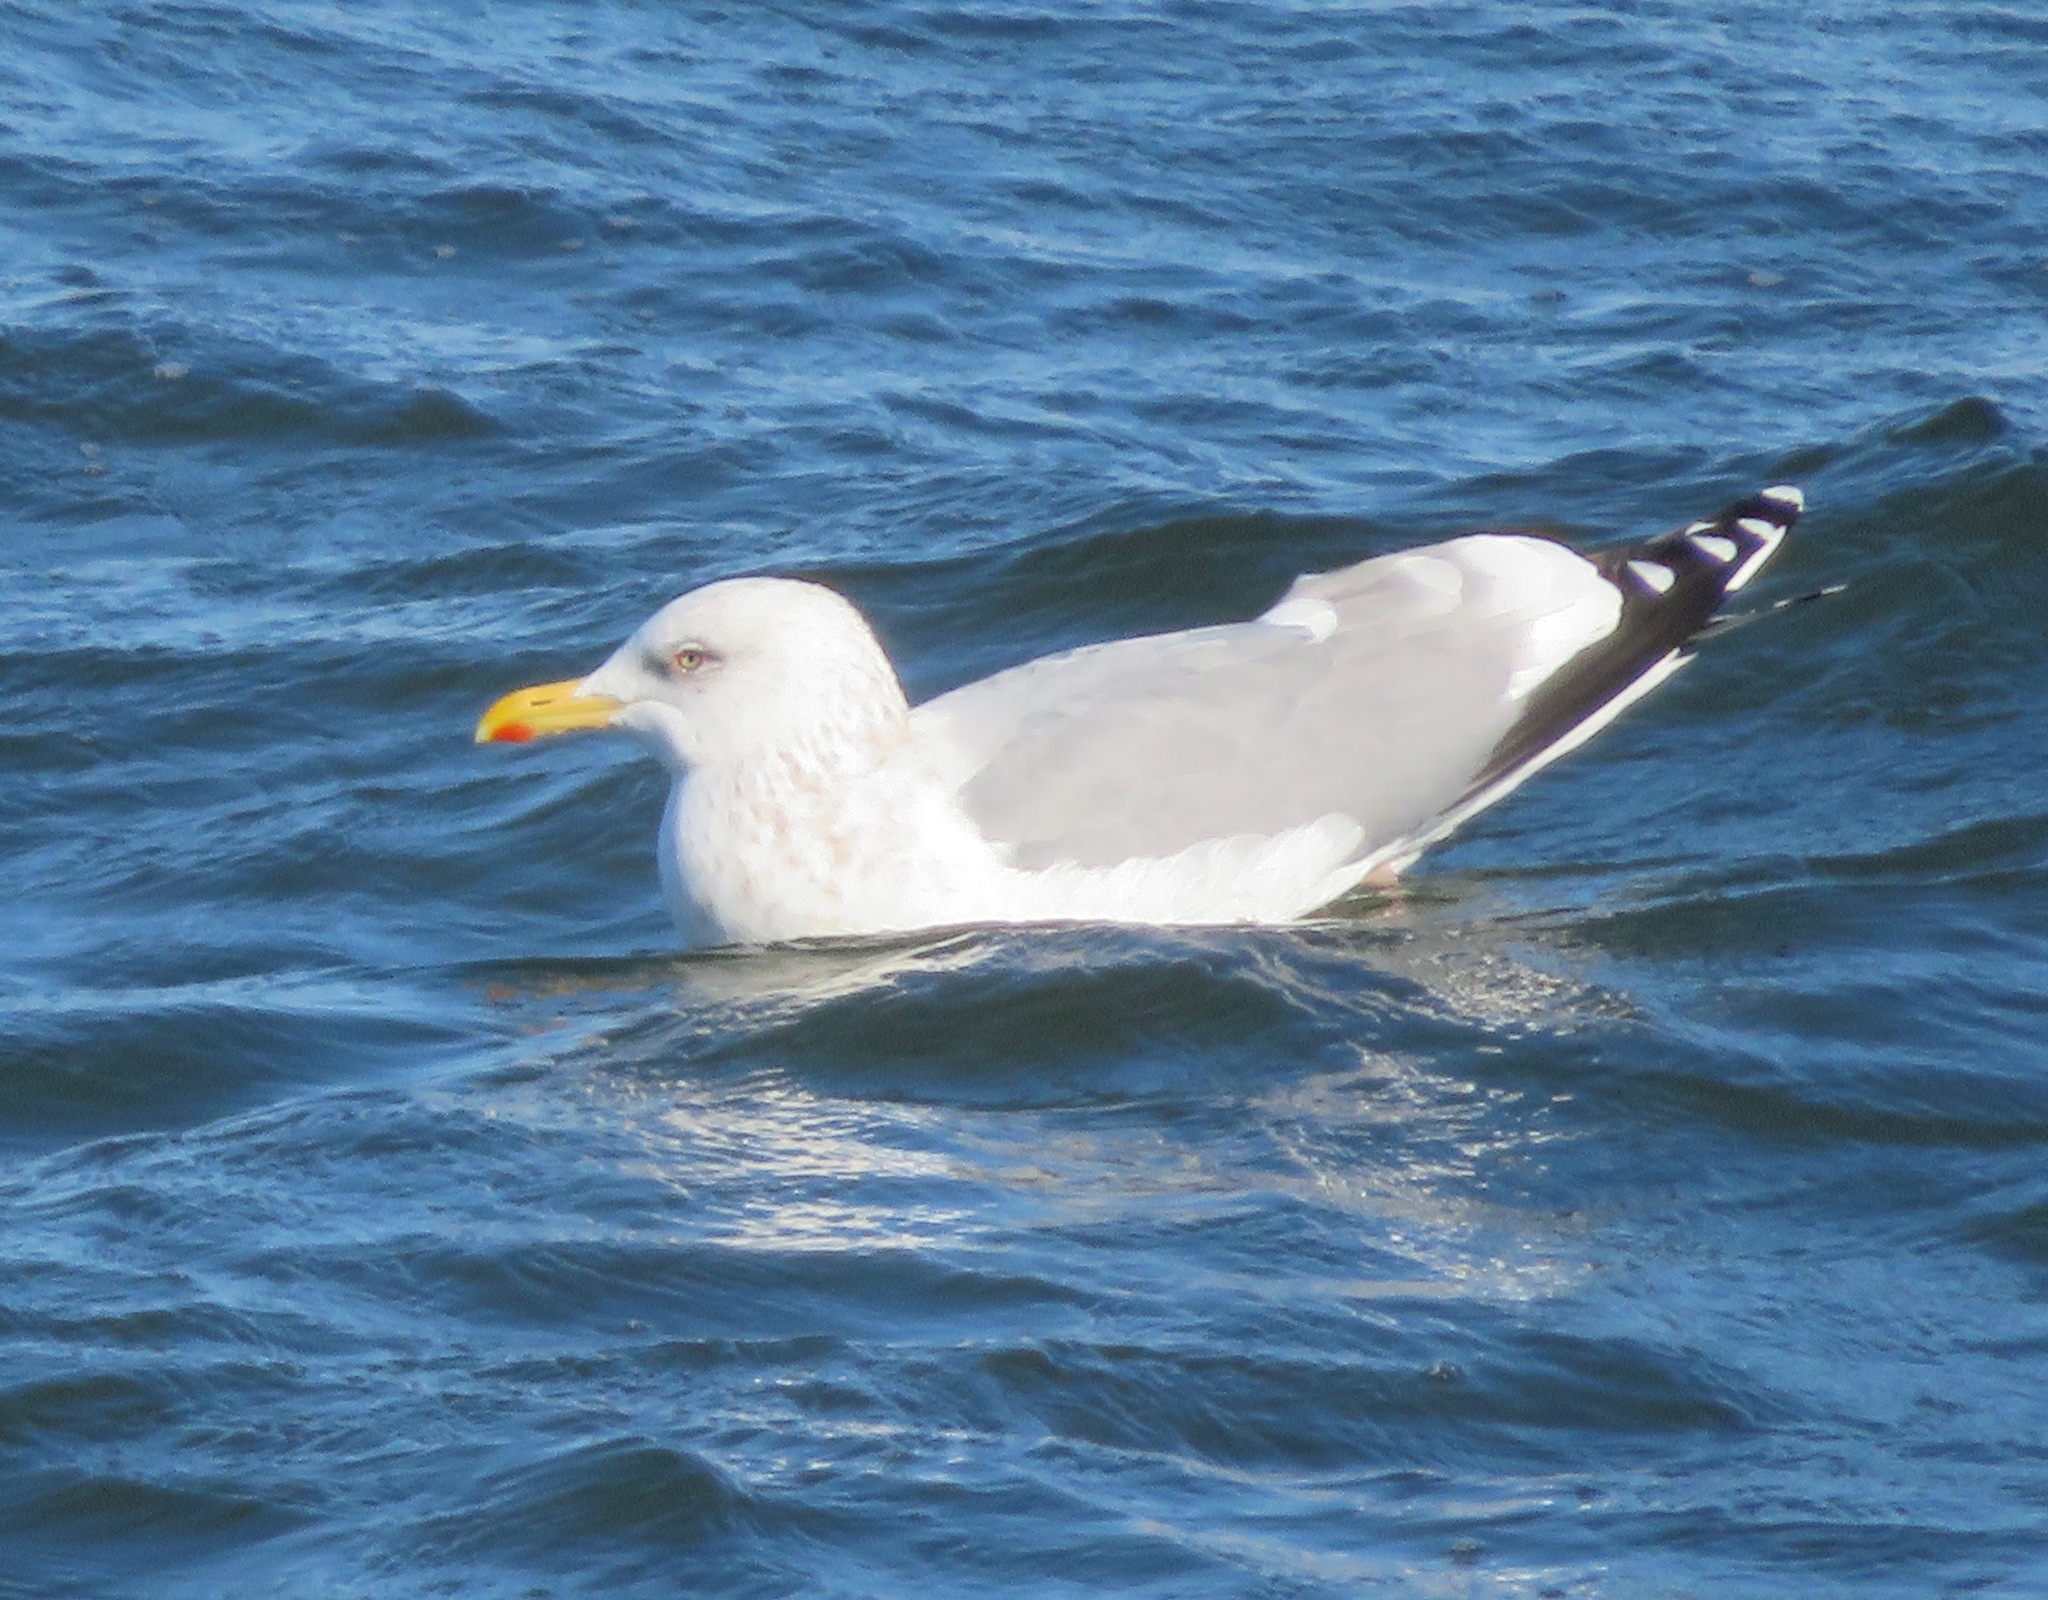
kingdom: Animalia
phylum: Chordata
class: Aves
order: Charadriiformes
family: Laridae
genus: Larus
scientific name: Larus vegae
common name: Vega gull
